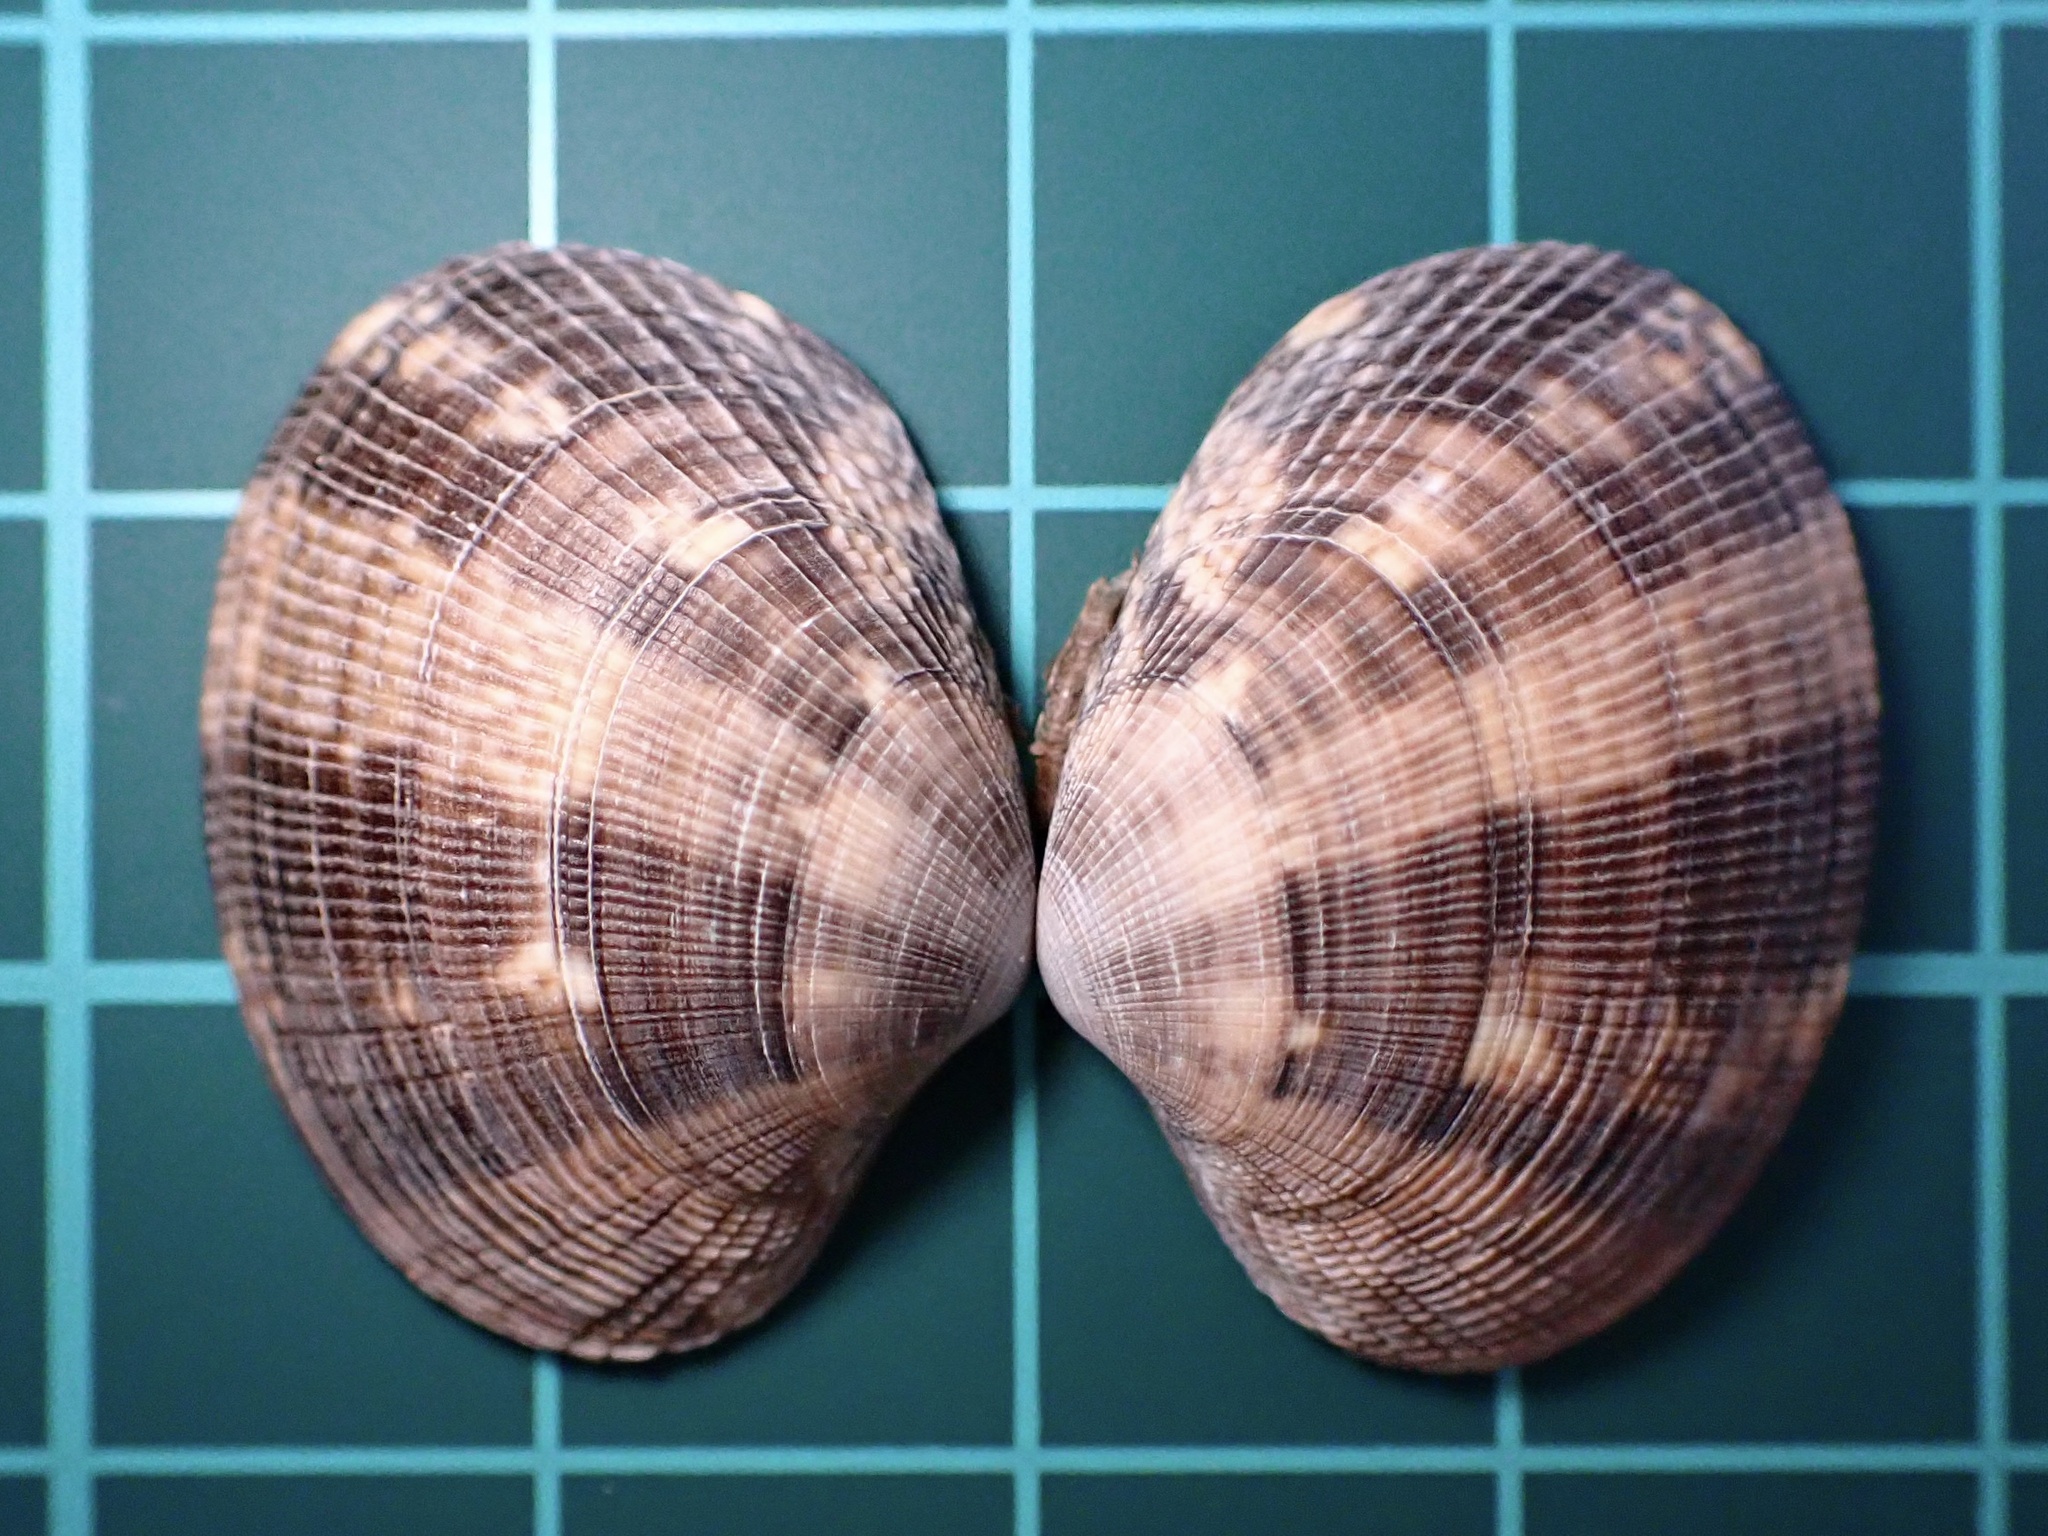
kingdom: Animalia
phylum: Mollusca
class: Bivalvia
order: Venerida
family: Veneridae
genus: Ruditapes
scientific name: Ruditapes philippinarum
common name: Manila clam
